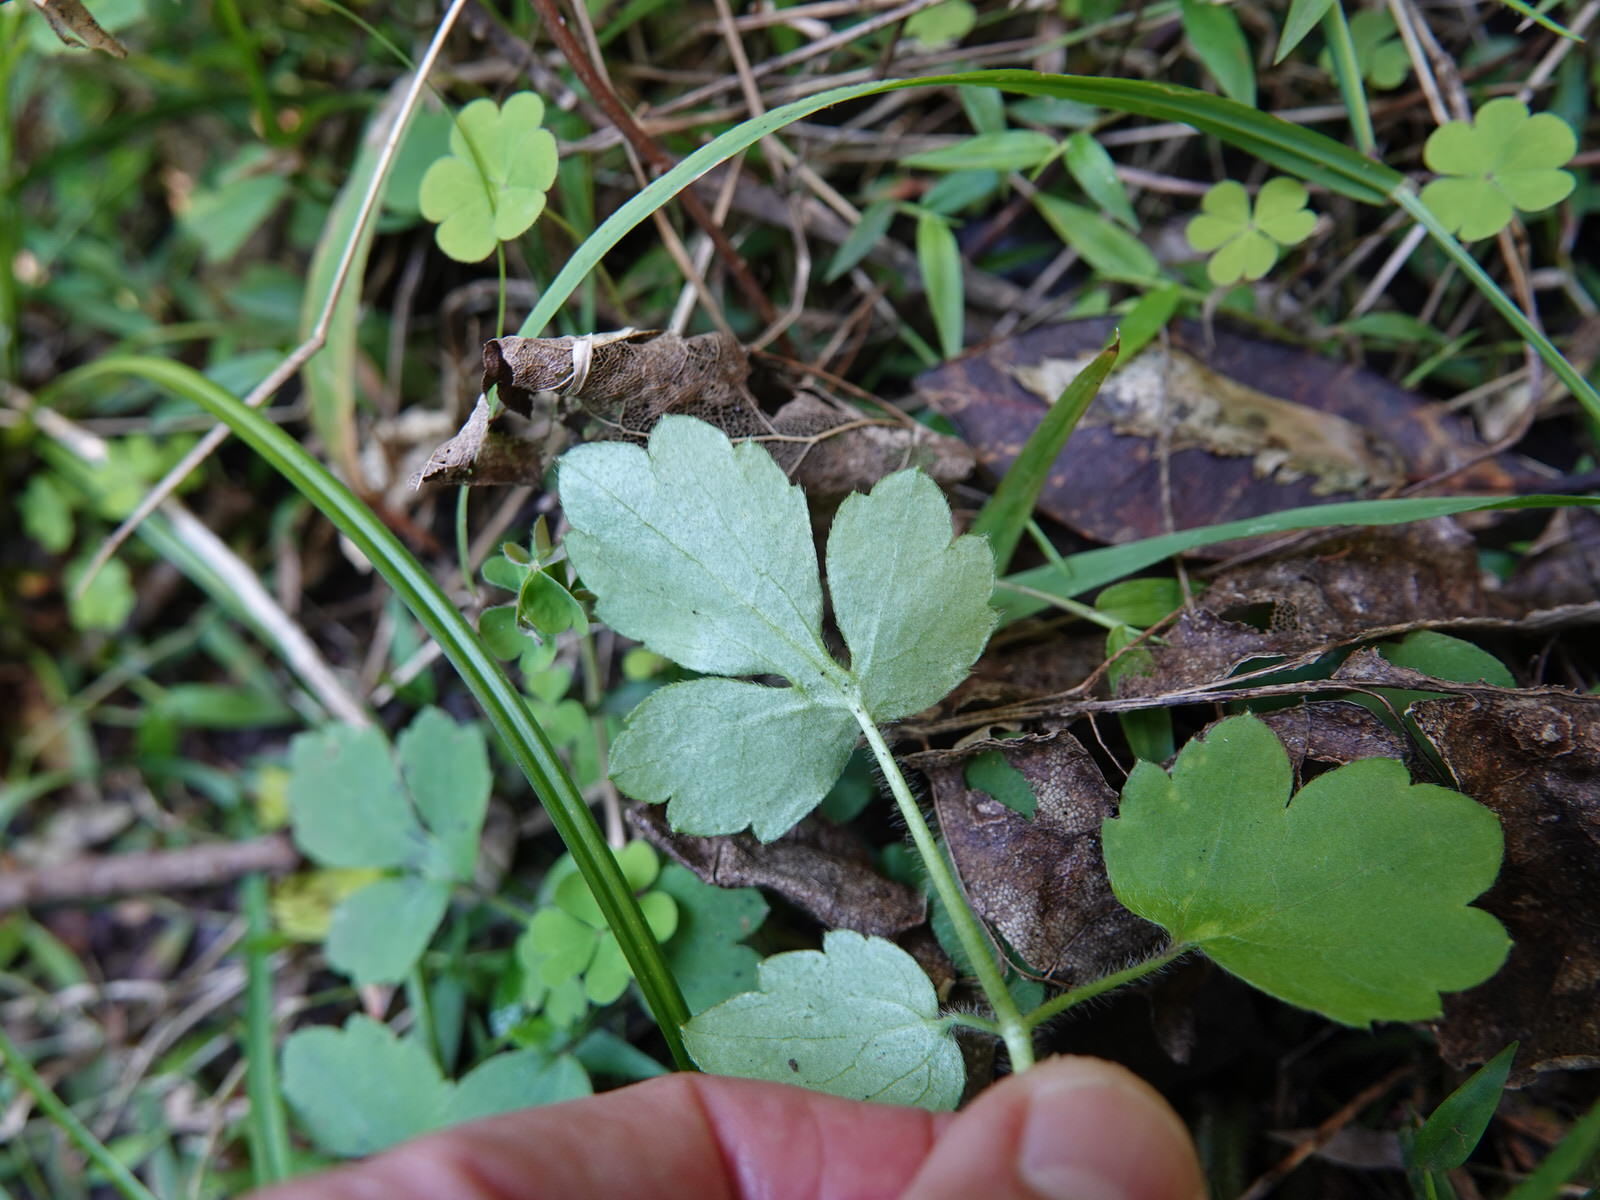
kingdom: Plantae
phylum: Tracheophyta
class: Magnoliopsida
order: Ranunculales
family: Ranunculaceae
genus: Ranunculus
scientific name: Ranunculus reflexus
